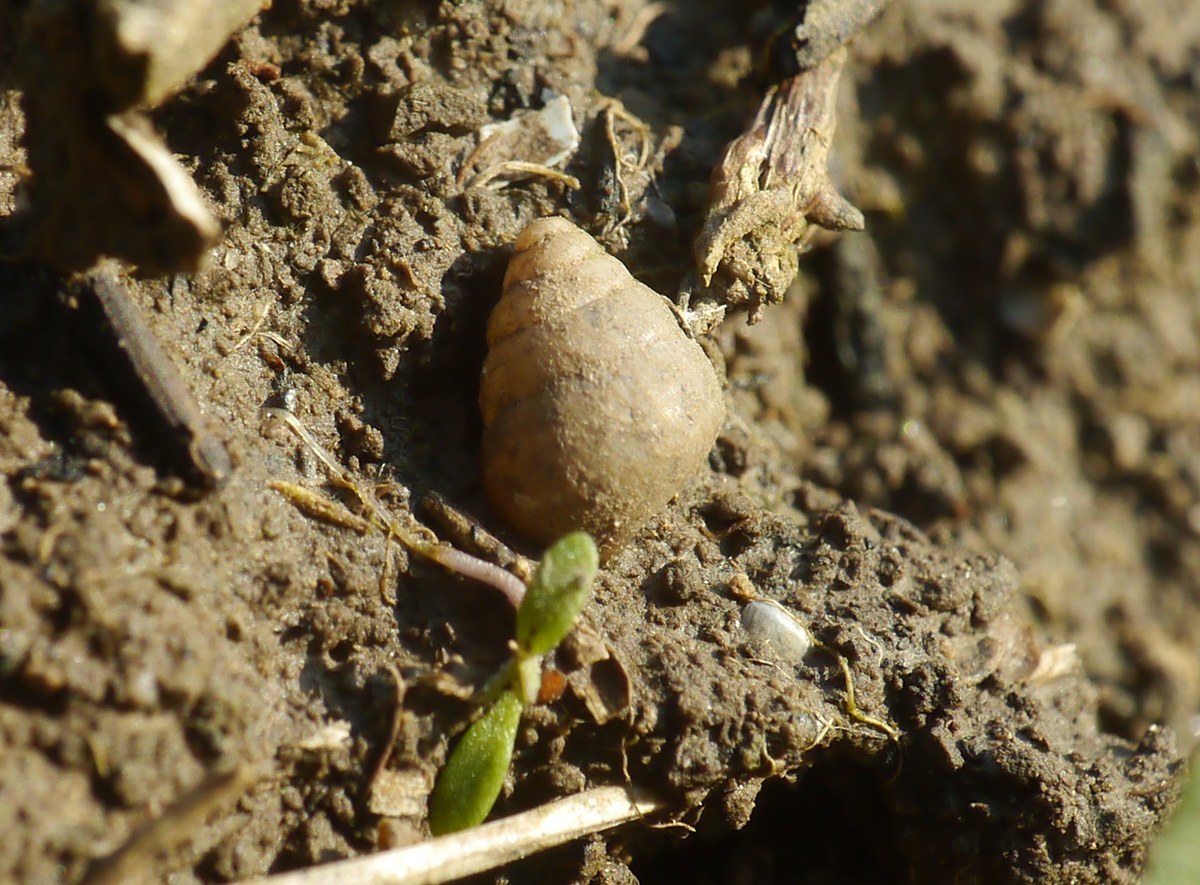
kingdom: Animalia
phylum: Mollusca
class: Gastropoda
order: Stylommatophora
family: Enidae
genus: Chondrula
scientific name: Chondrula tridens
